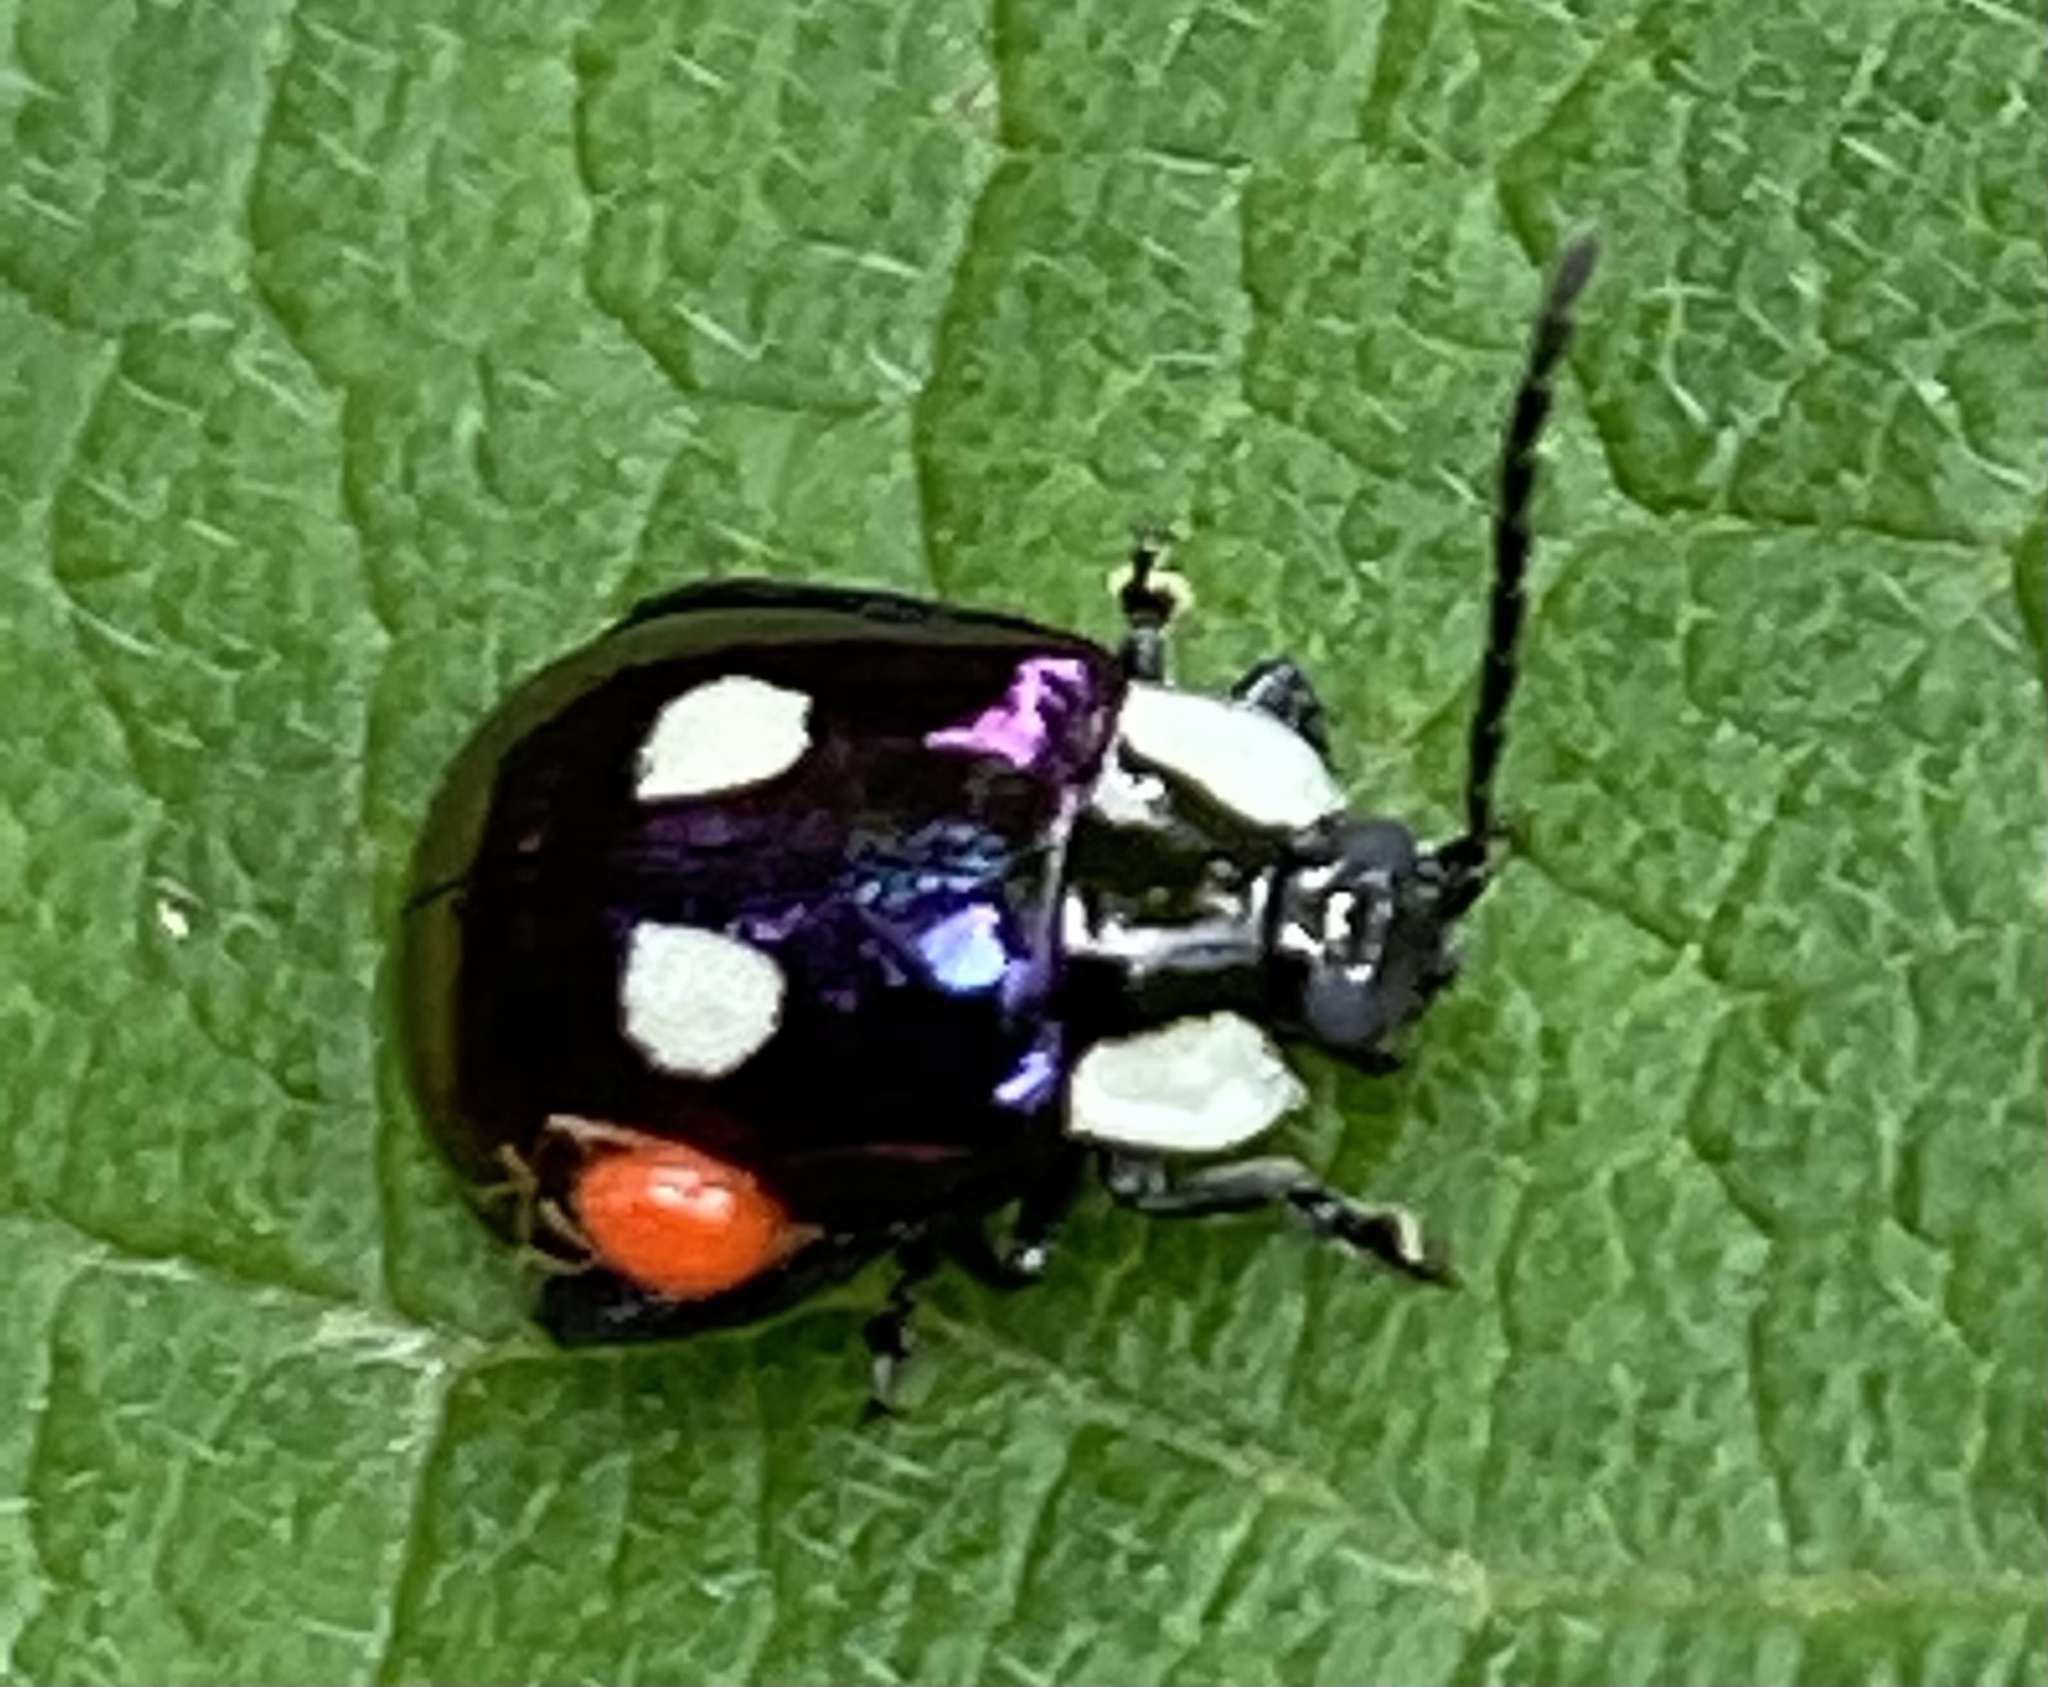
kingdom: Animalia
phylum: Arthropoda
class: Insecta
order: Coleoptera
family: Chrysomelidae
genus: Alagoasa
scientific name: Alagoasa
